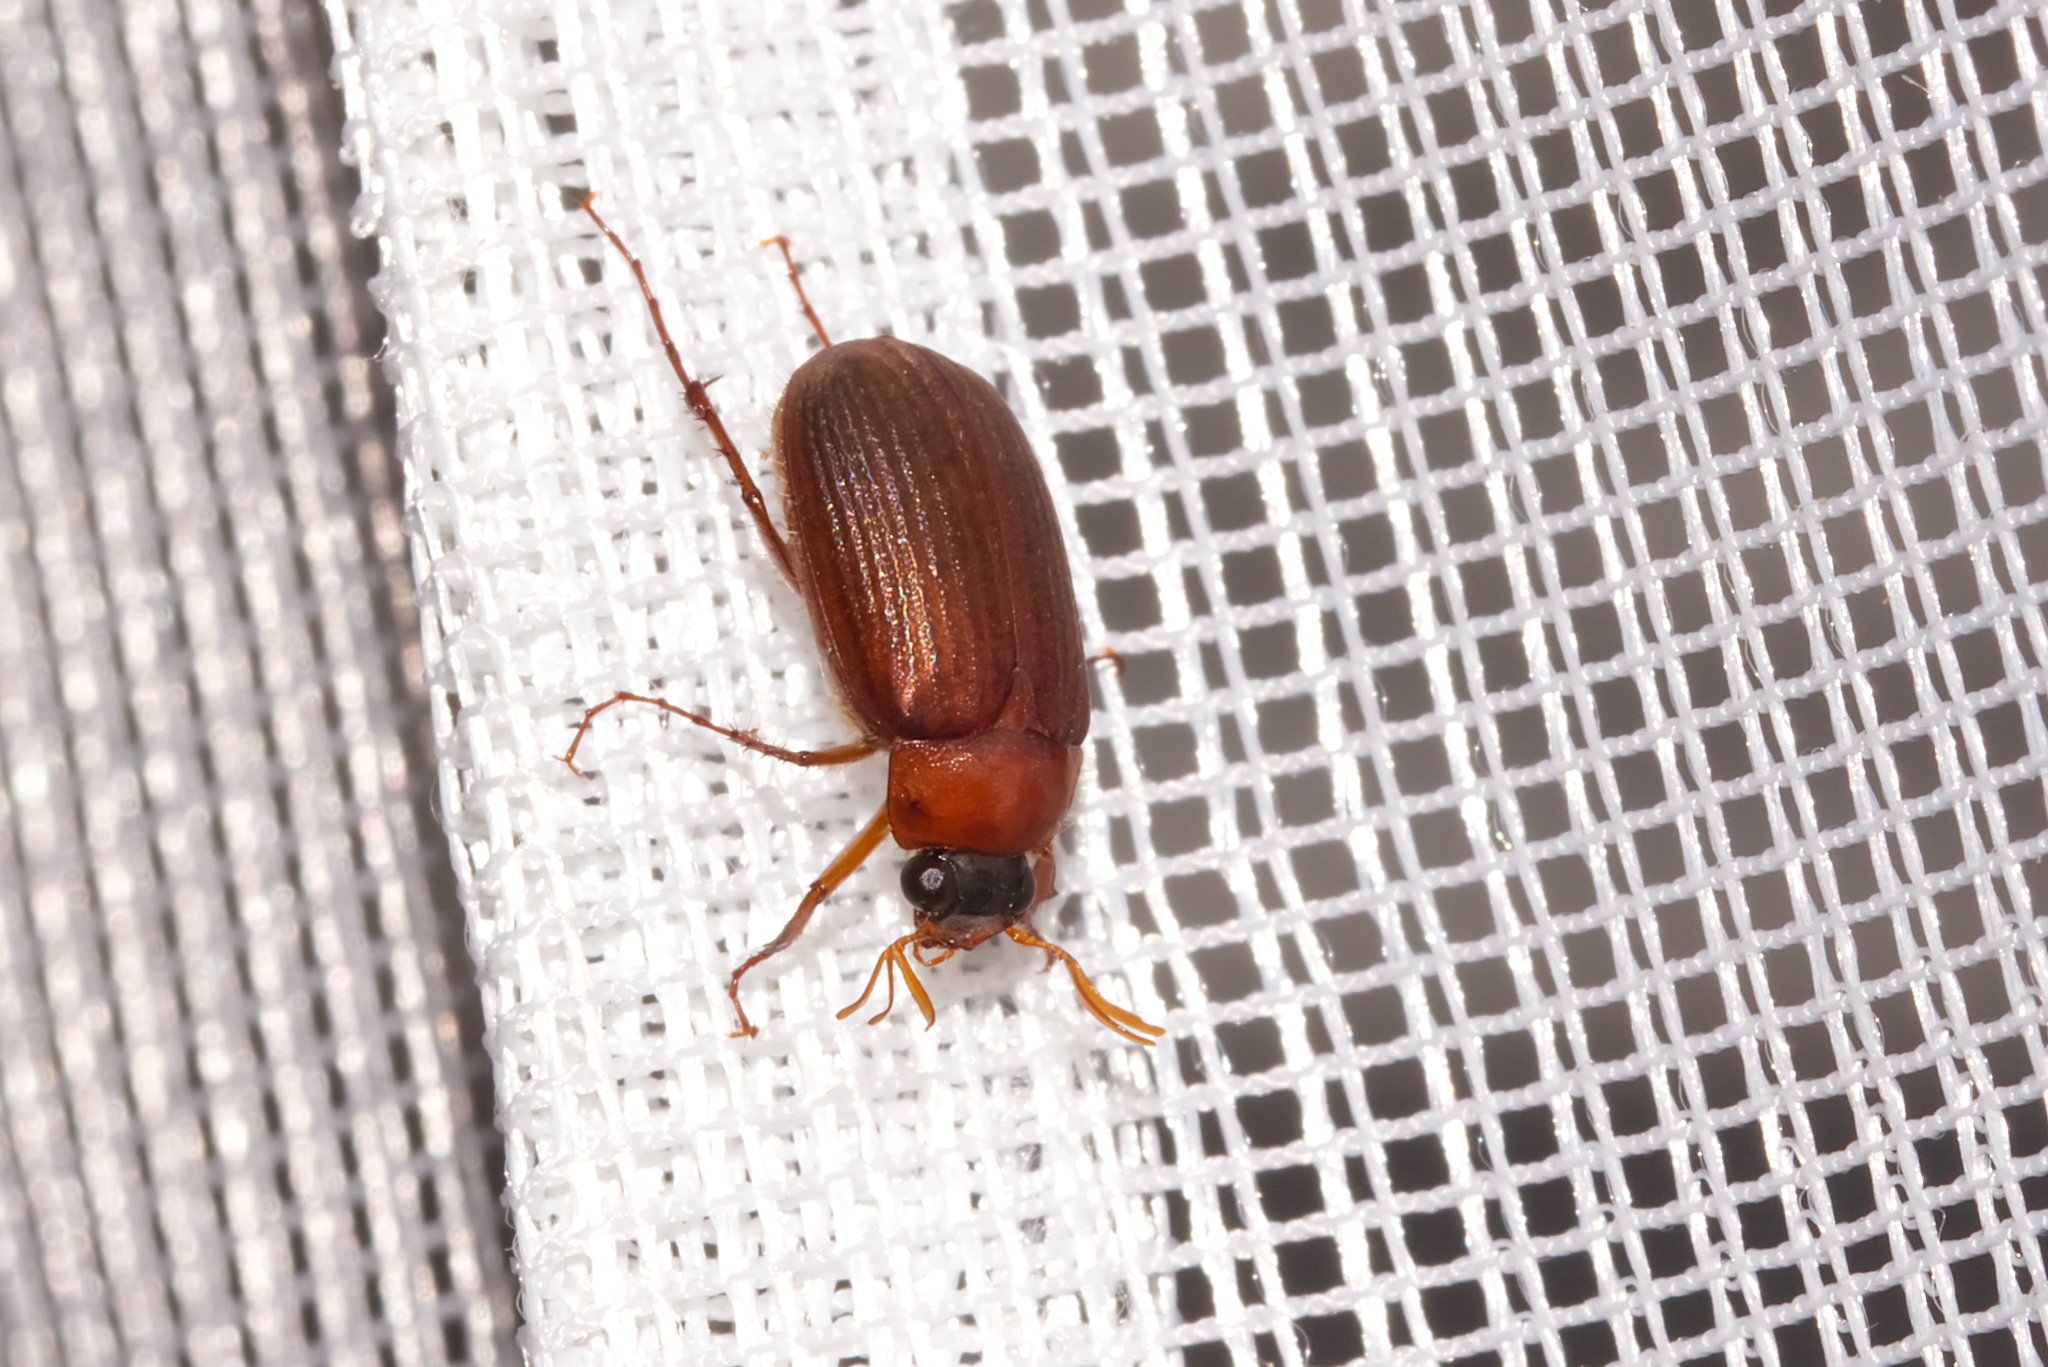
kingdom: Animalia
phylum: Arthropoda
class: Insecta
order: Coleoptera
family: Scarabaeidae
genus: Serica
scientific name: Serica brunnea
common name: Brown chafer
